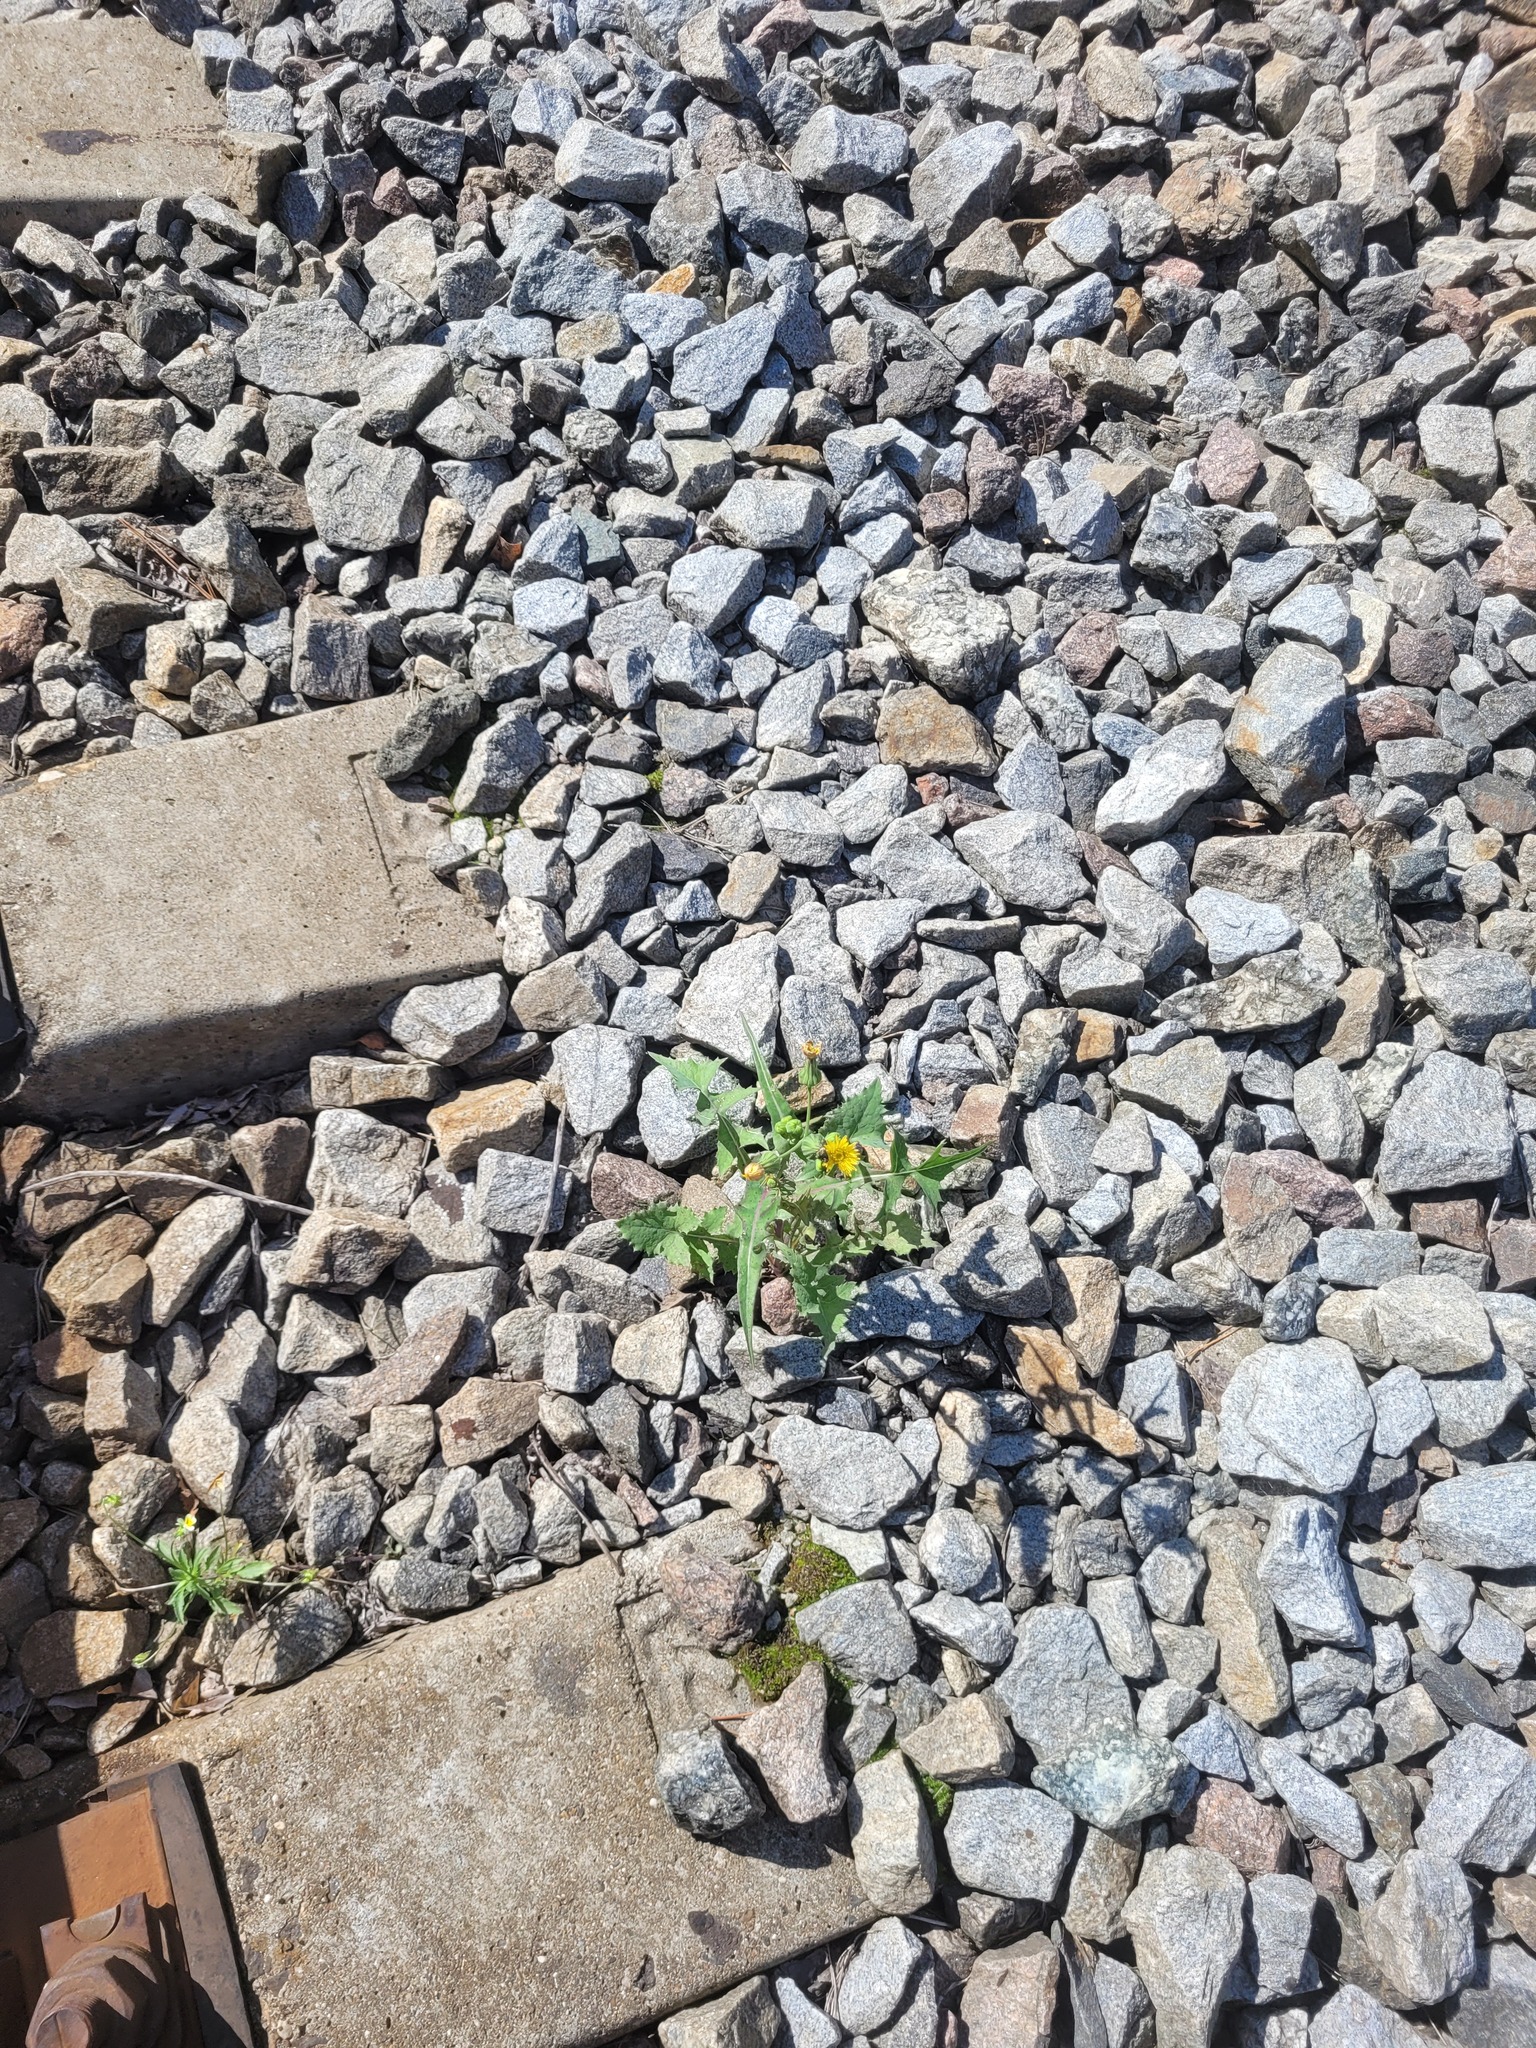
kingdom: Plantae
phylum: Tracheophyta
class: Magnoliopsida
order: Asterales
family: Asteraceae
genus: Sonchus
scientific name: Sonchus oleraceus
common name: Common sowthistle
